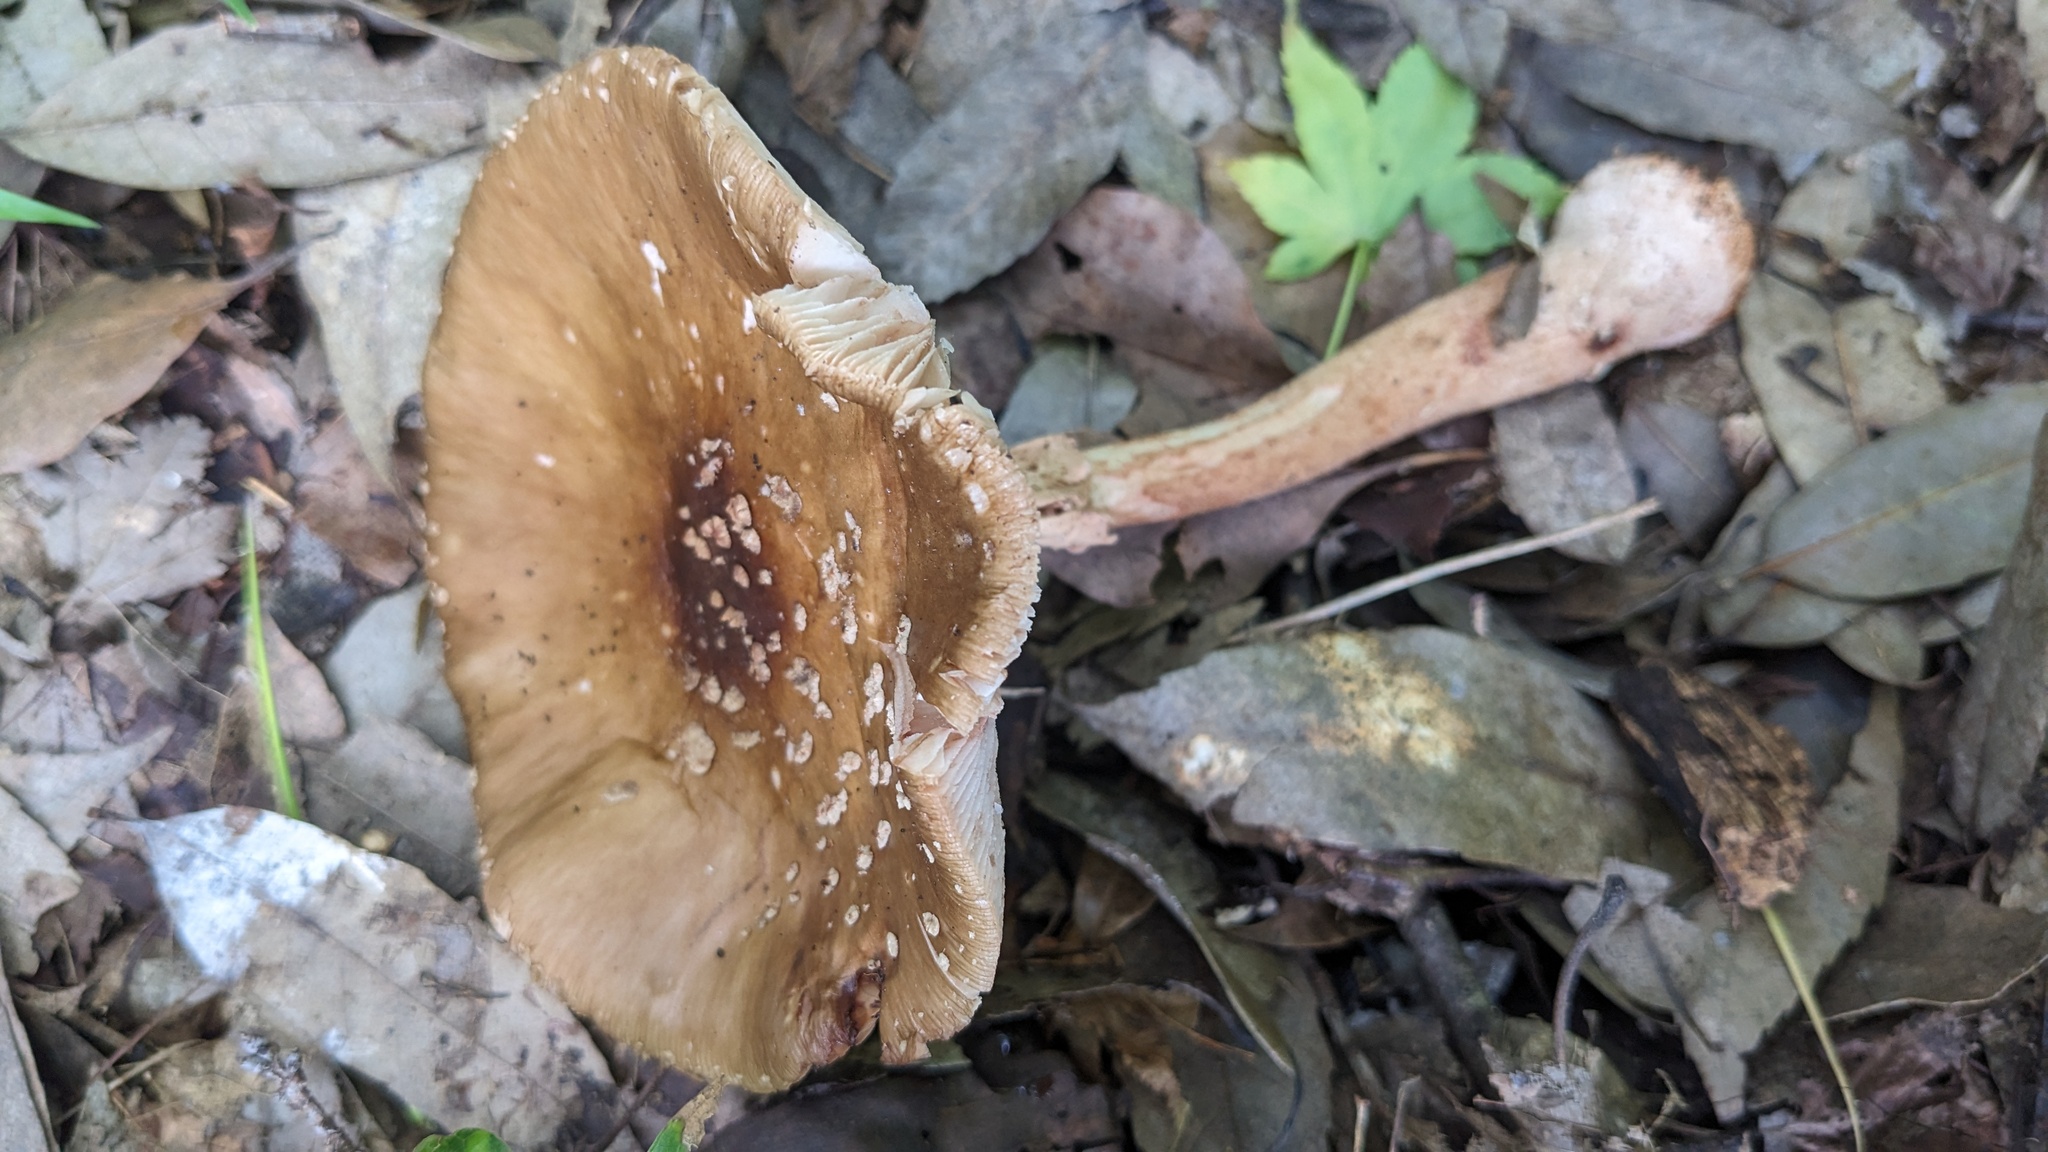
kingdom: Fungi
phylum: Basidiomycota
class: Agaricomycetes
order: Agaricales
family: Amanitaceae
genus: Amanita
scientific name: Amanita rubescens
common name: Blusher
